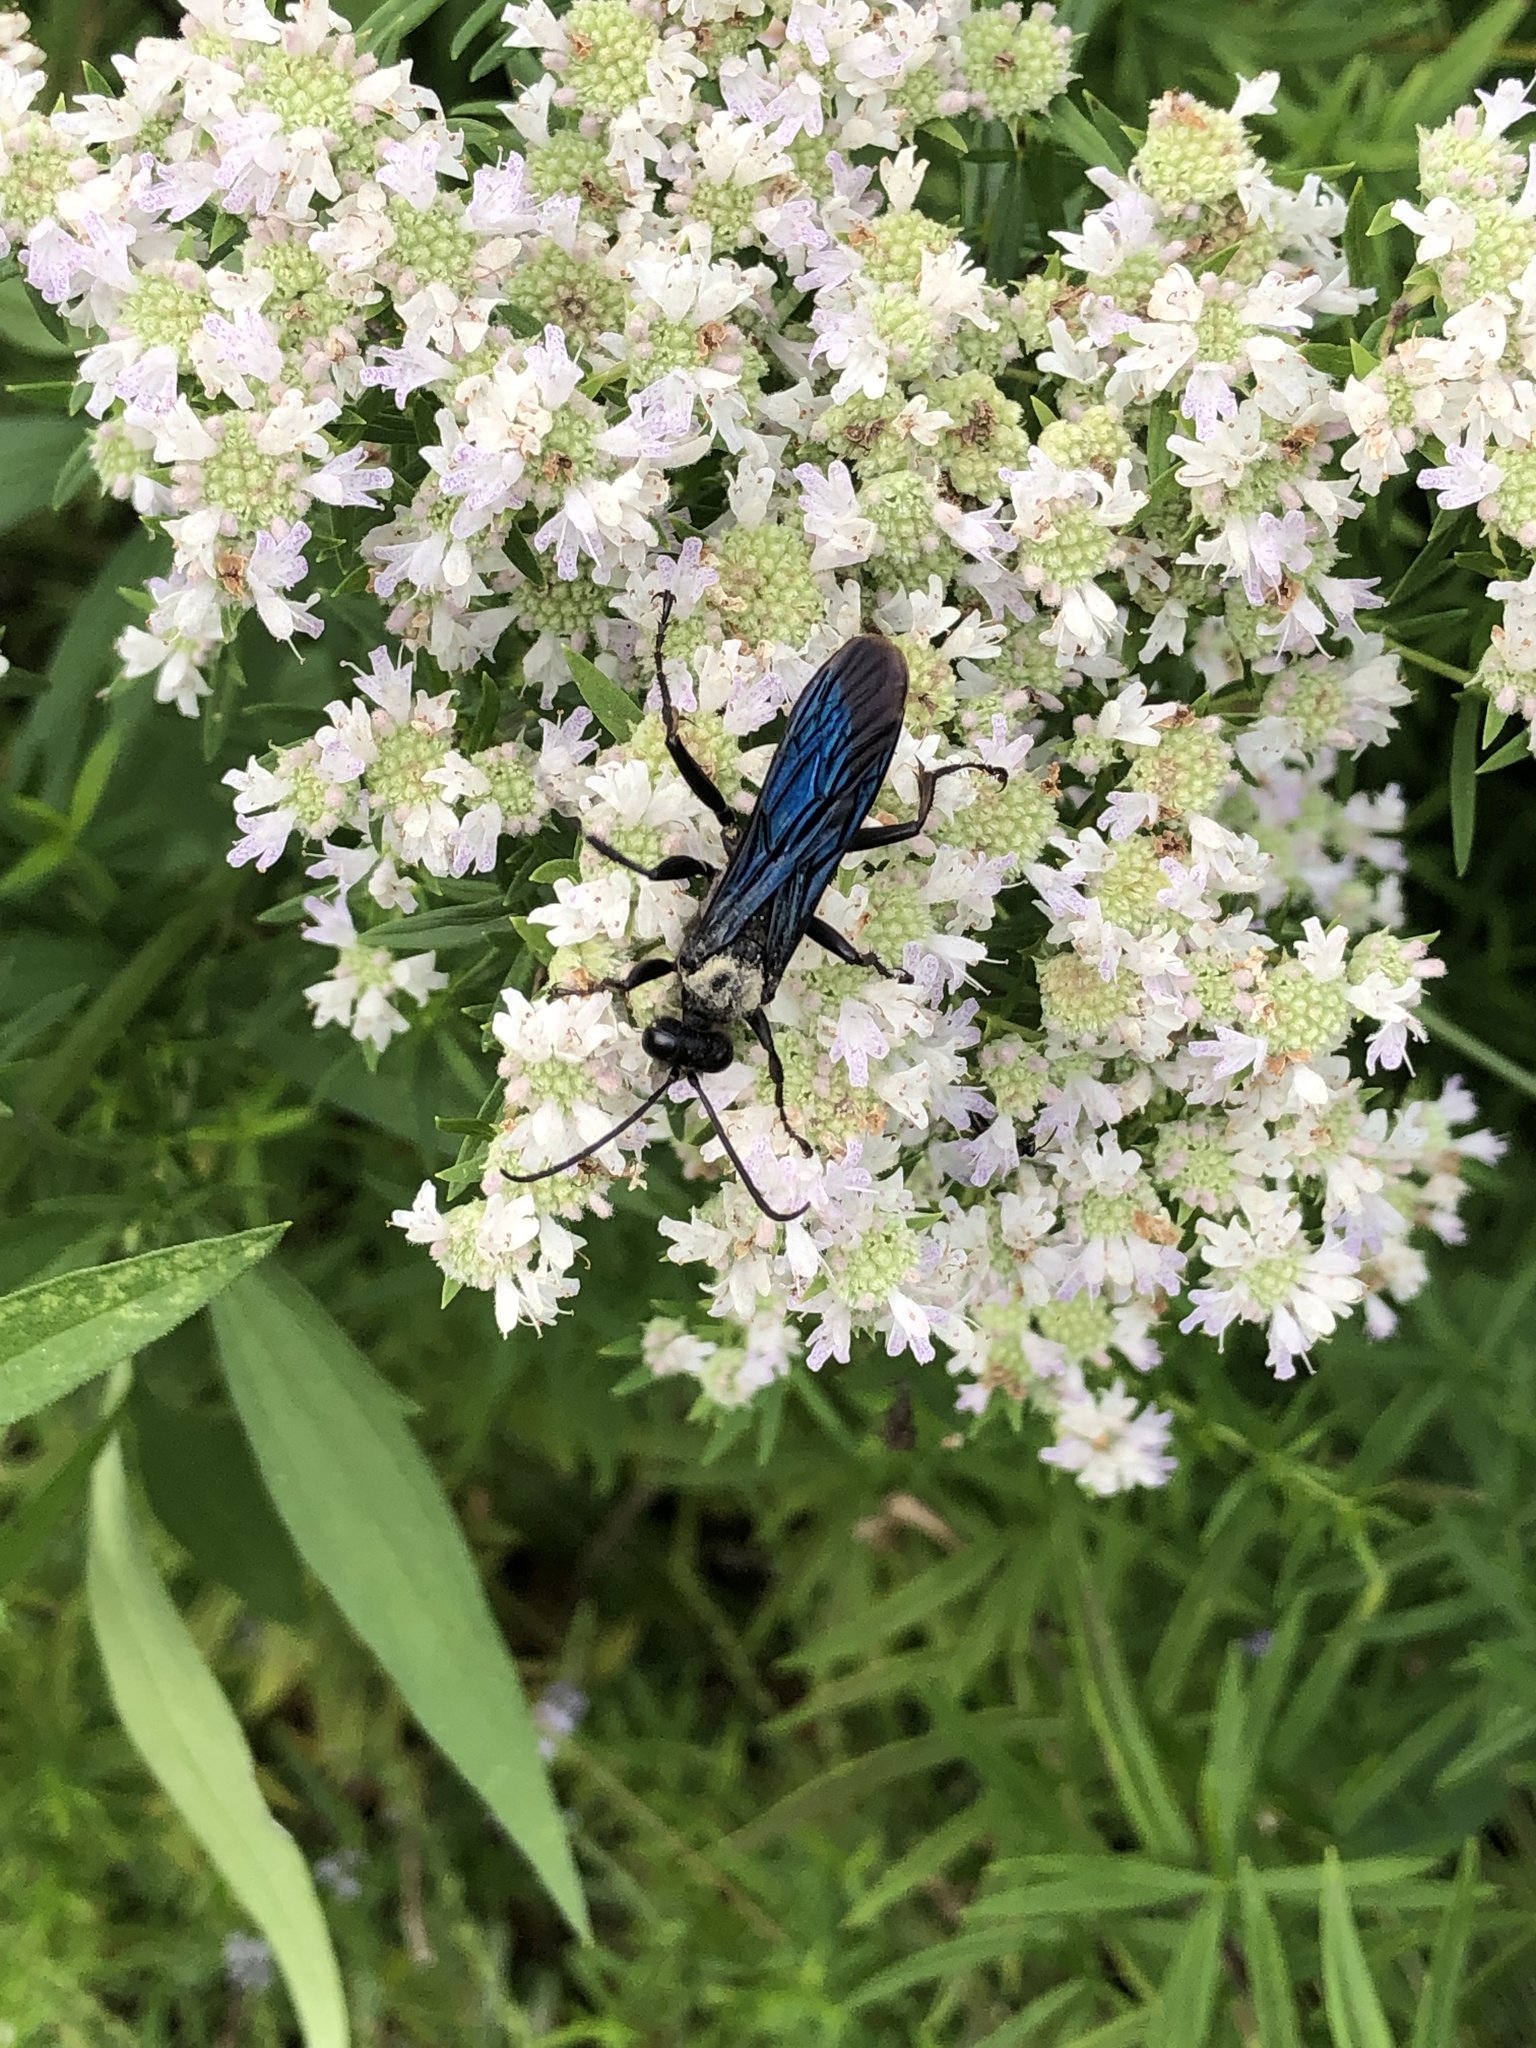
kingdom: Animalia
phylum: Arthropoda
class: Insecta
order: Hymenoptera
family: Sphecidae
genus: Sphex
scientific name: Sphex pensylvanicus
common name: Great black digger wasp
